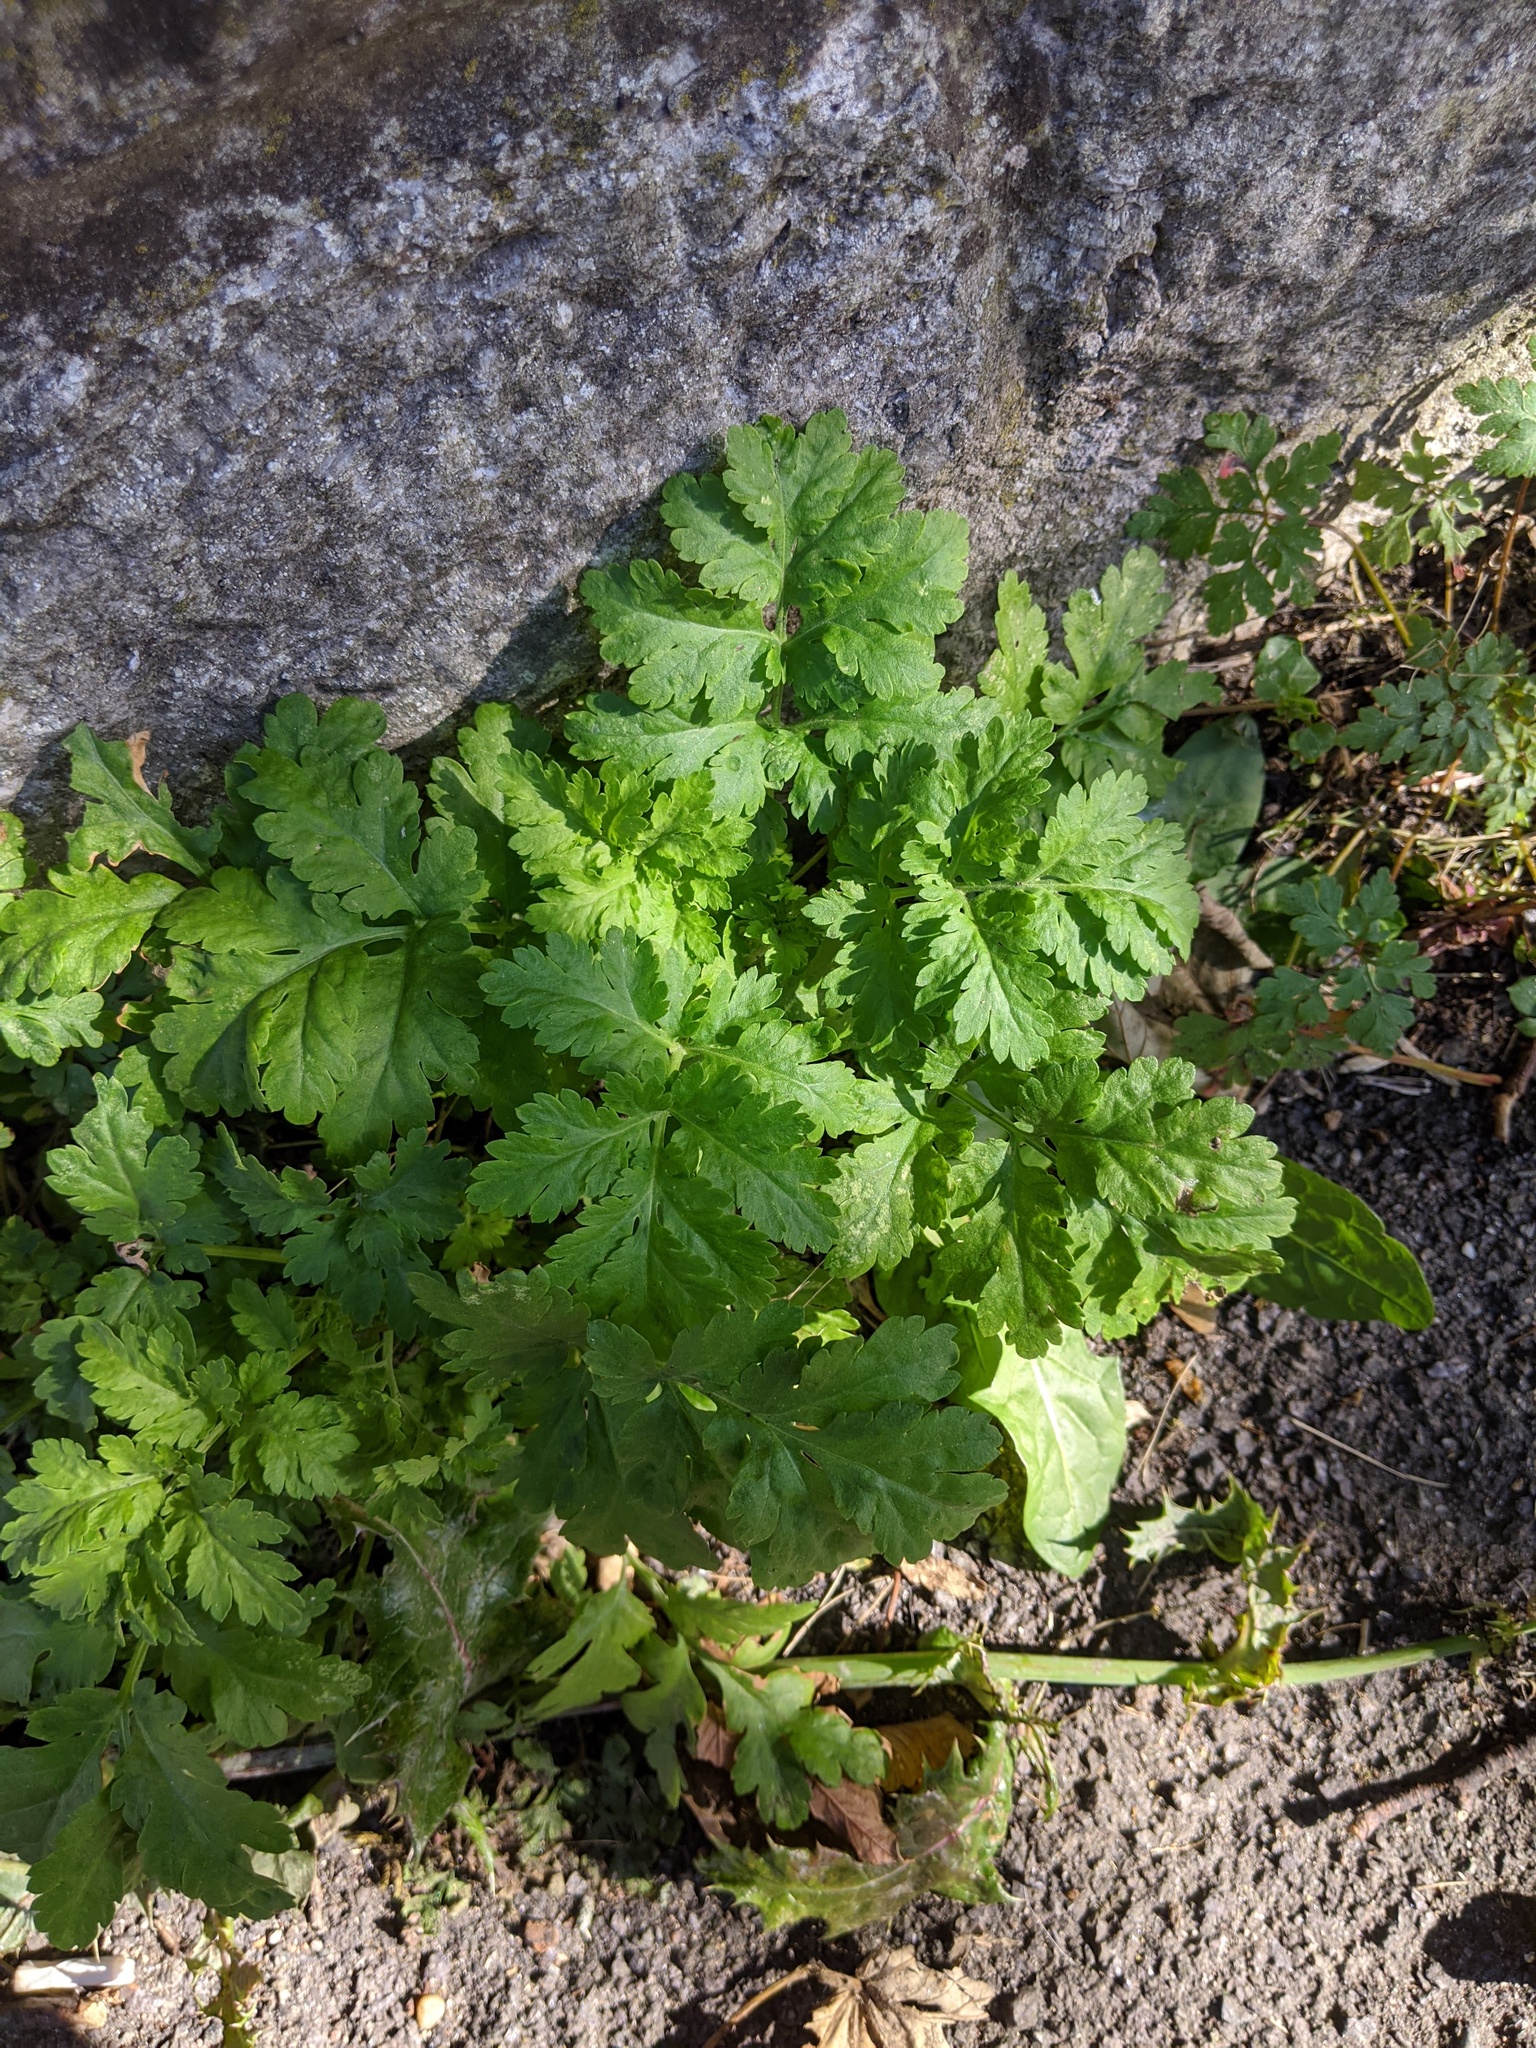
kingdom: Plantae
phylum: Tracheophyta
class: Magnoliopsida
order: Asterales
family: Asteraceae
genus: Tanacetum
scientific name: Tanacetum parthenium
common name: Feverfew
